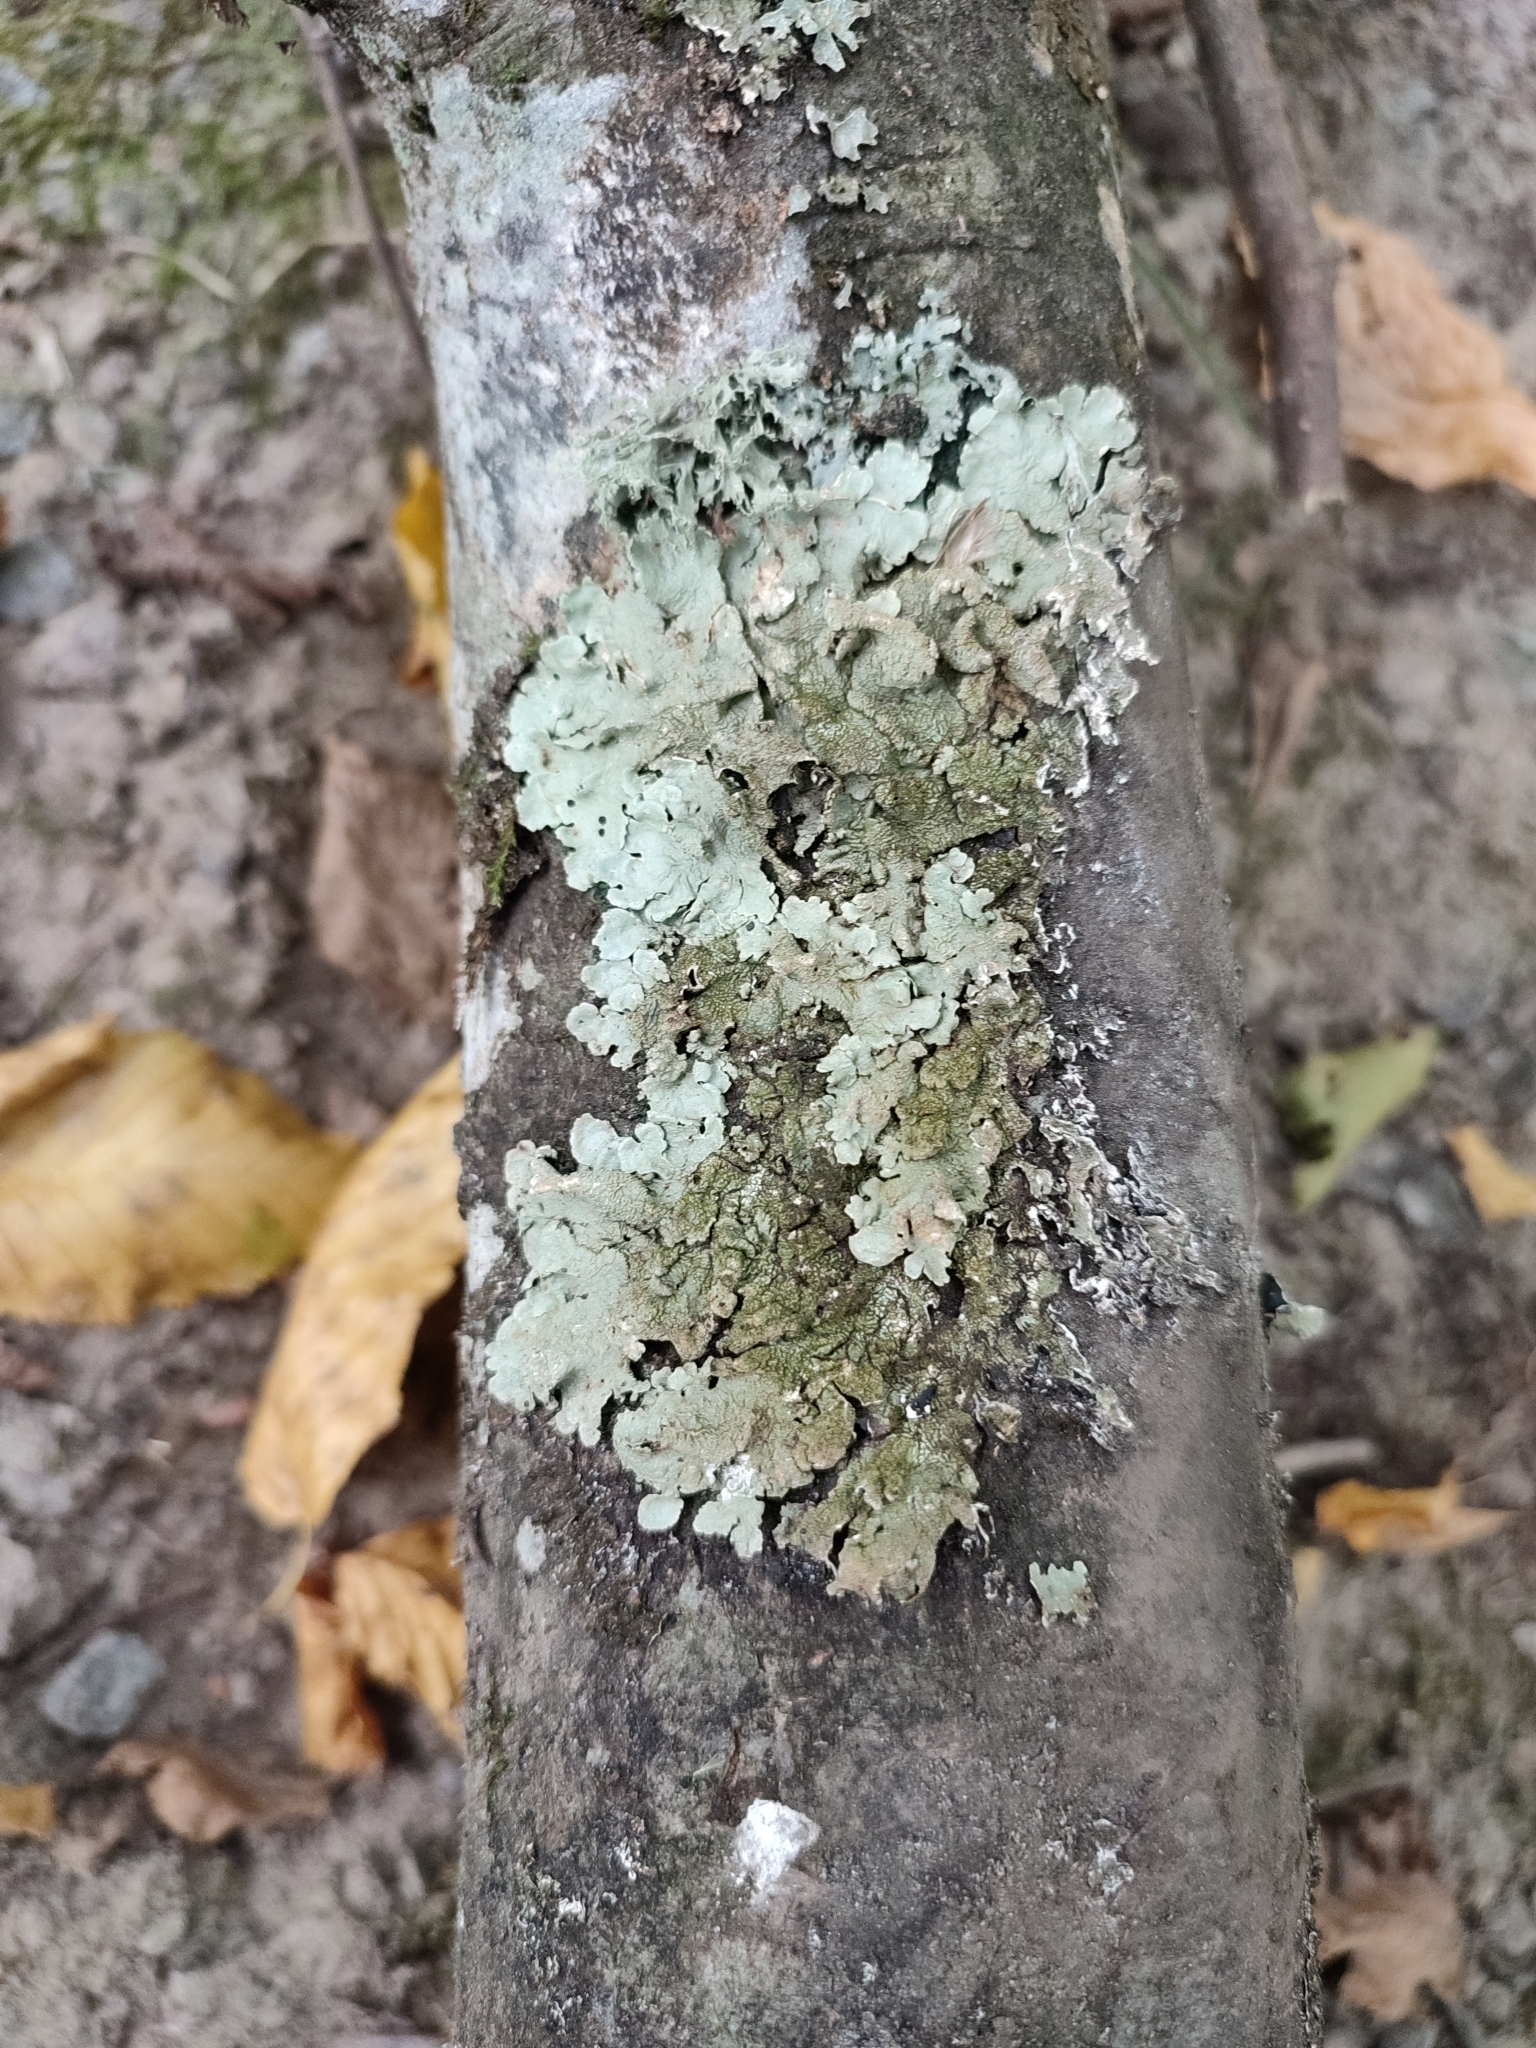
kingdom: Fungi
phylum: Ascomycota
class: Lecanoromycetes
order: Lecanorales
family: Parmeliaceae
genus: Flavoparmelia
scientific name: Flavoparmelia caperata
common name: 40-mile per hour lichen
